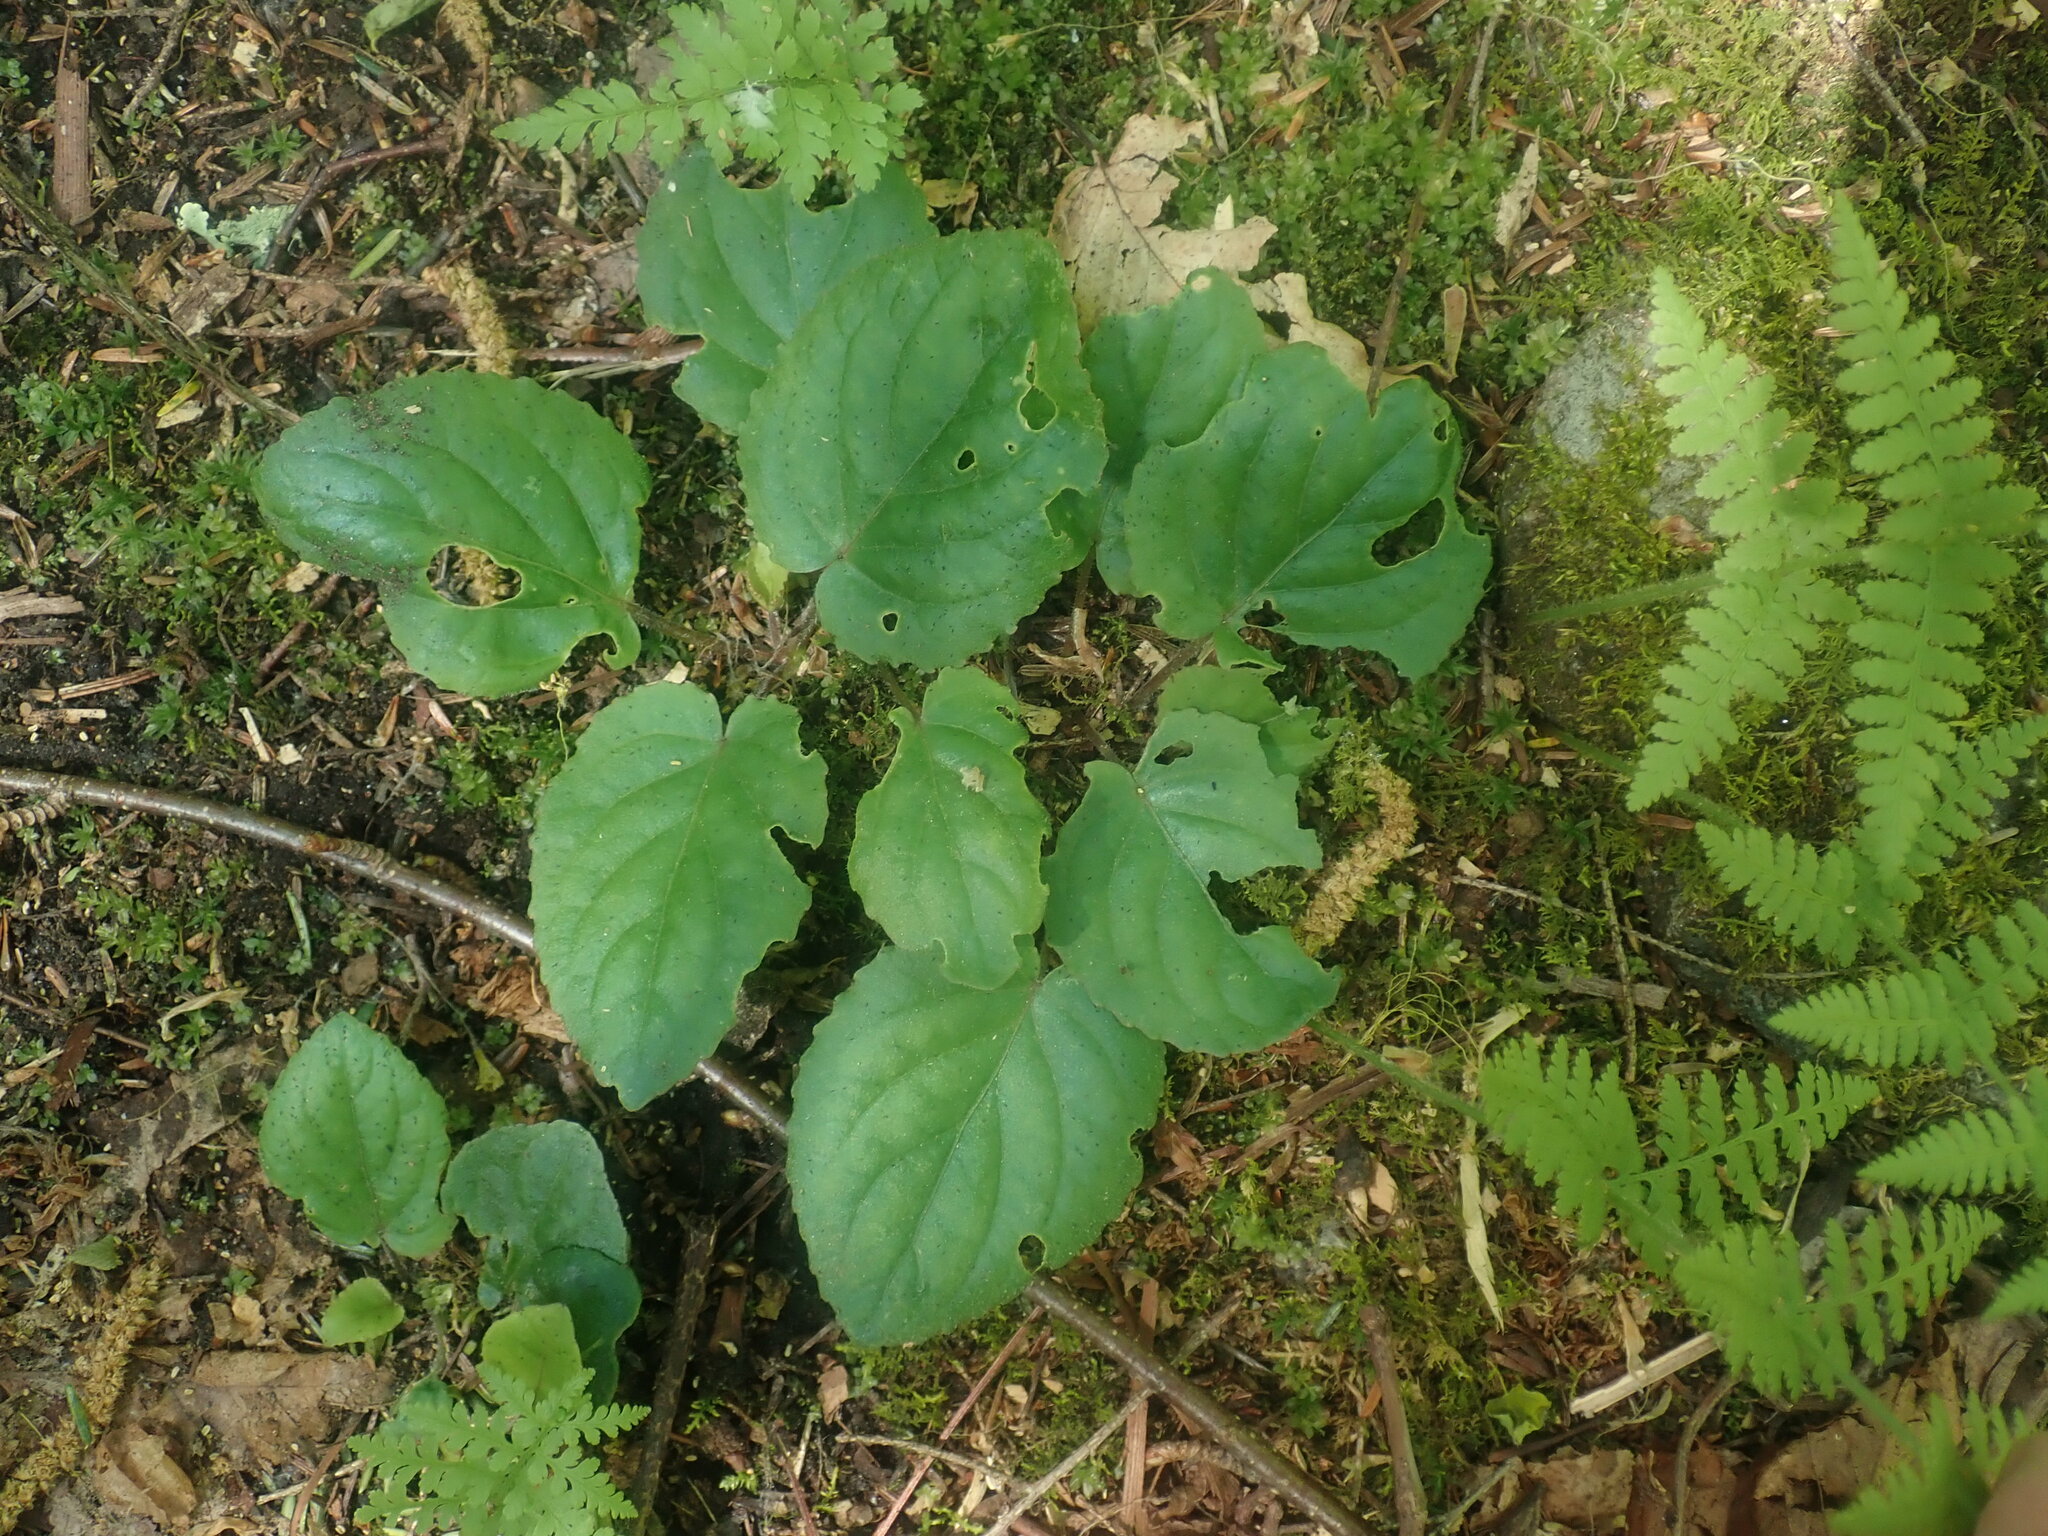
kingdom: Plantae
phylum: Tracheophyta
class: Magnoliopsida
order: Malpighiales
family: Violaceae
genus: Viola
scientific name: Viola rotundifolia
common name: Early yellow violet
